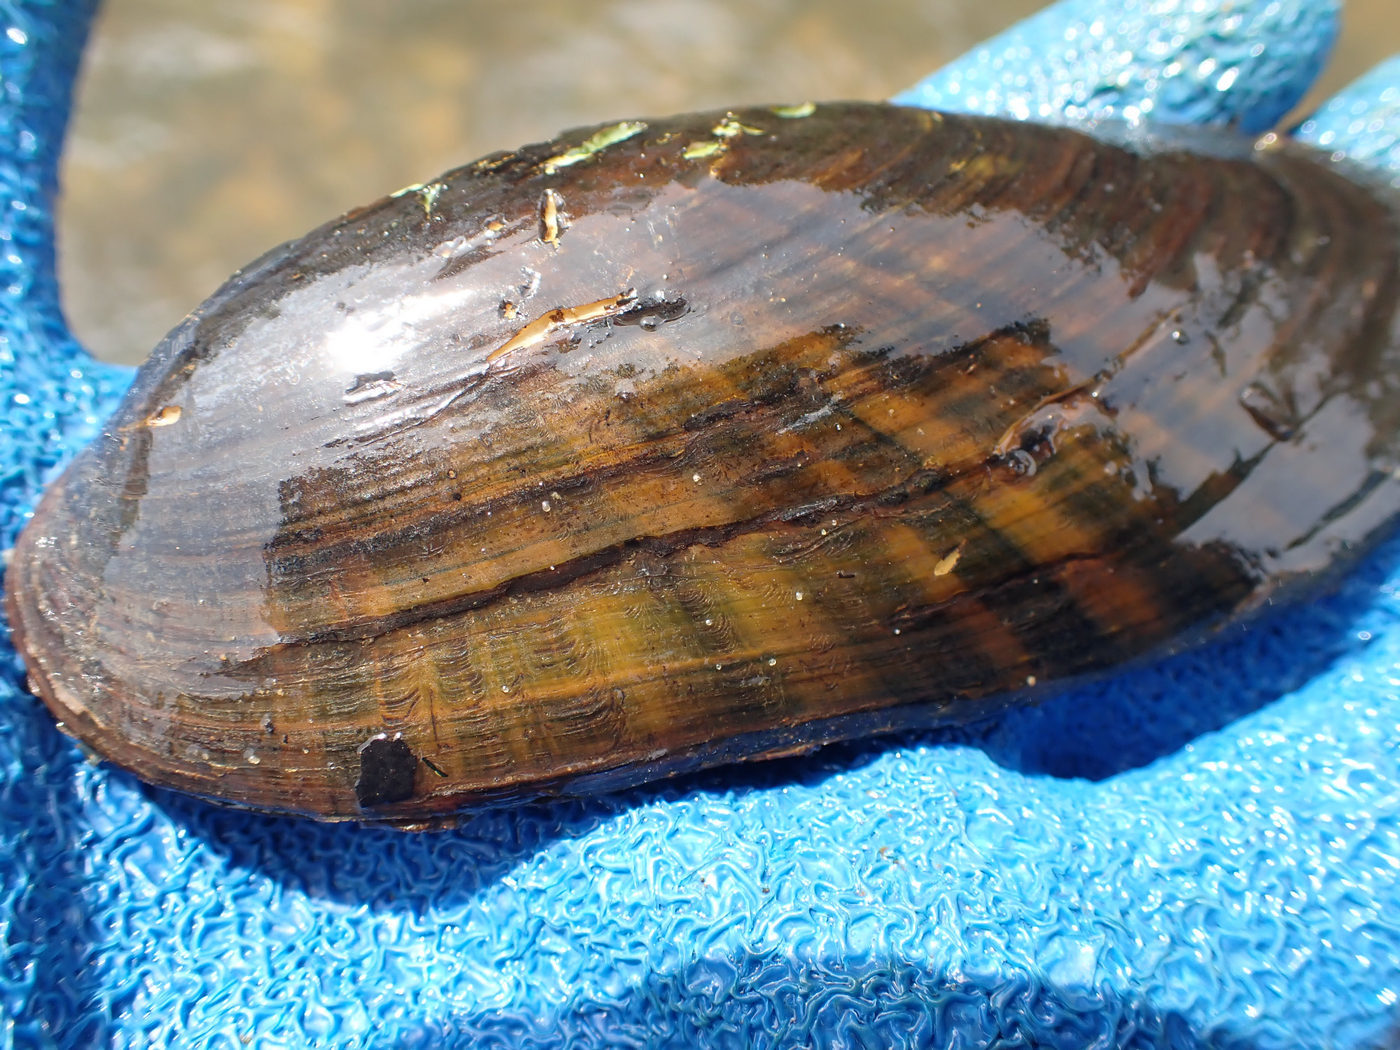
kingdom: Animalia
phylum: Mollusca
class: Bivalvia
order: Unionida
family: Unionidae
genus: Ligumia
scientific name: Ligumia recta
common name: Black sandshell
